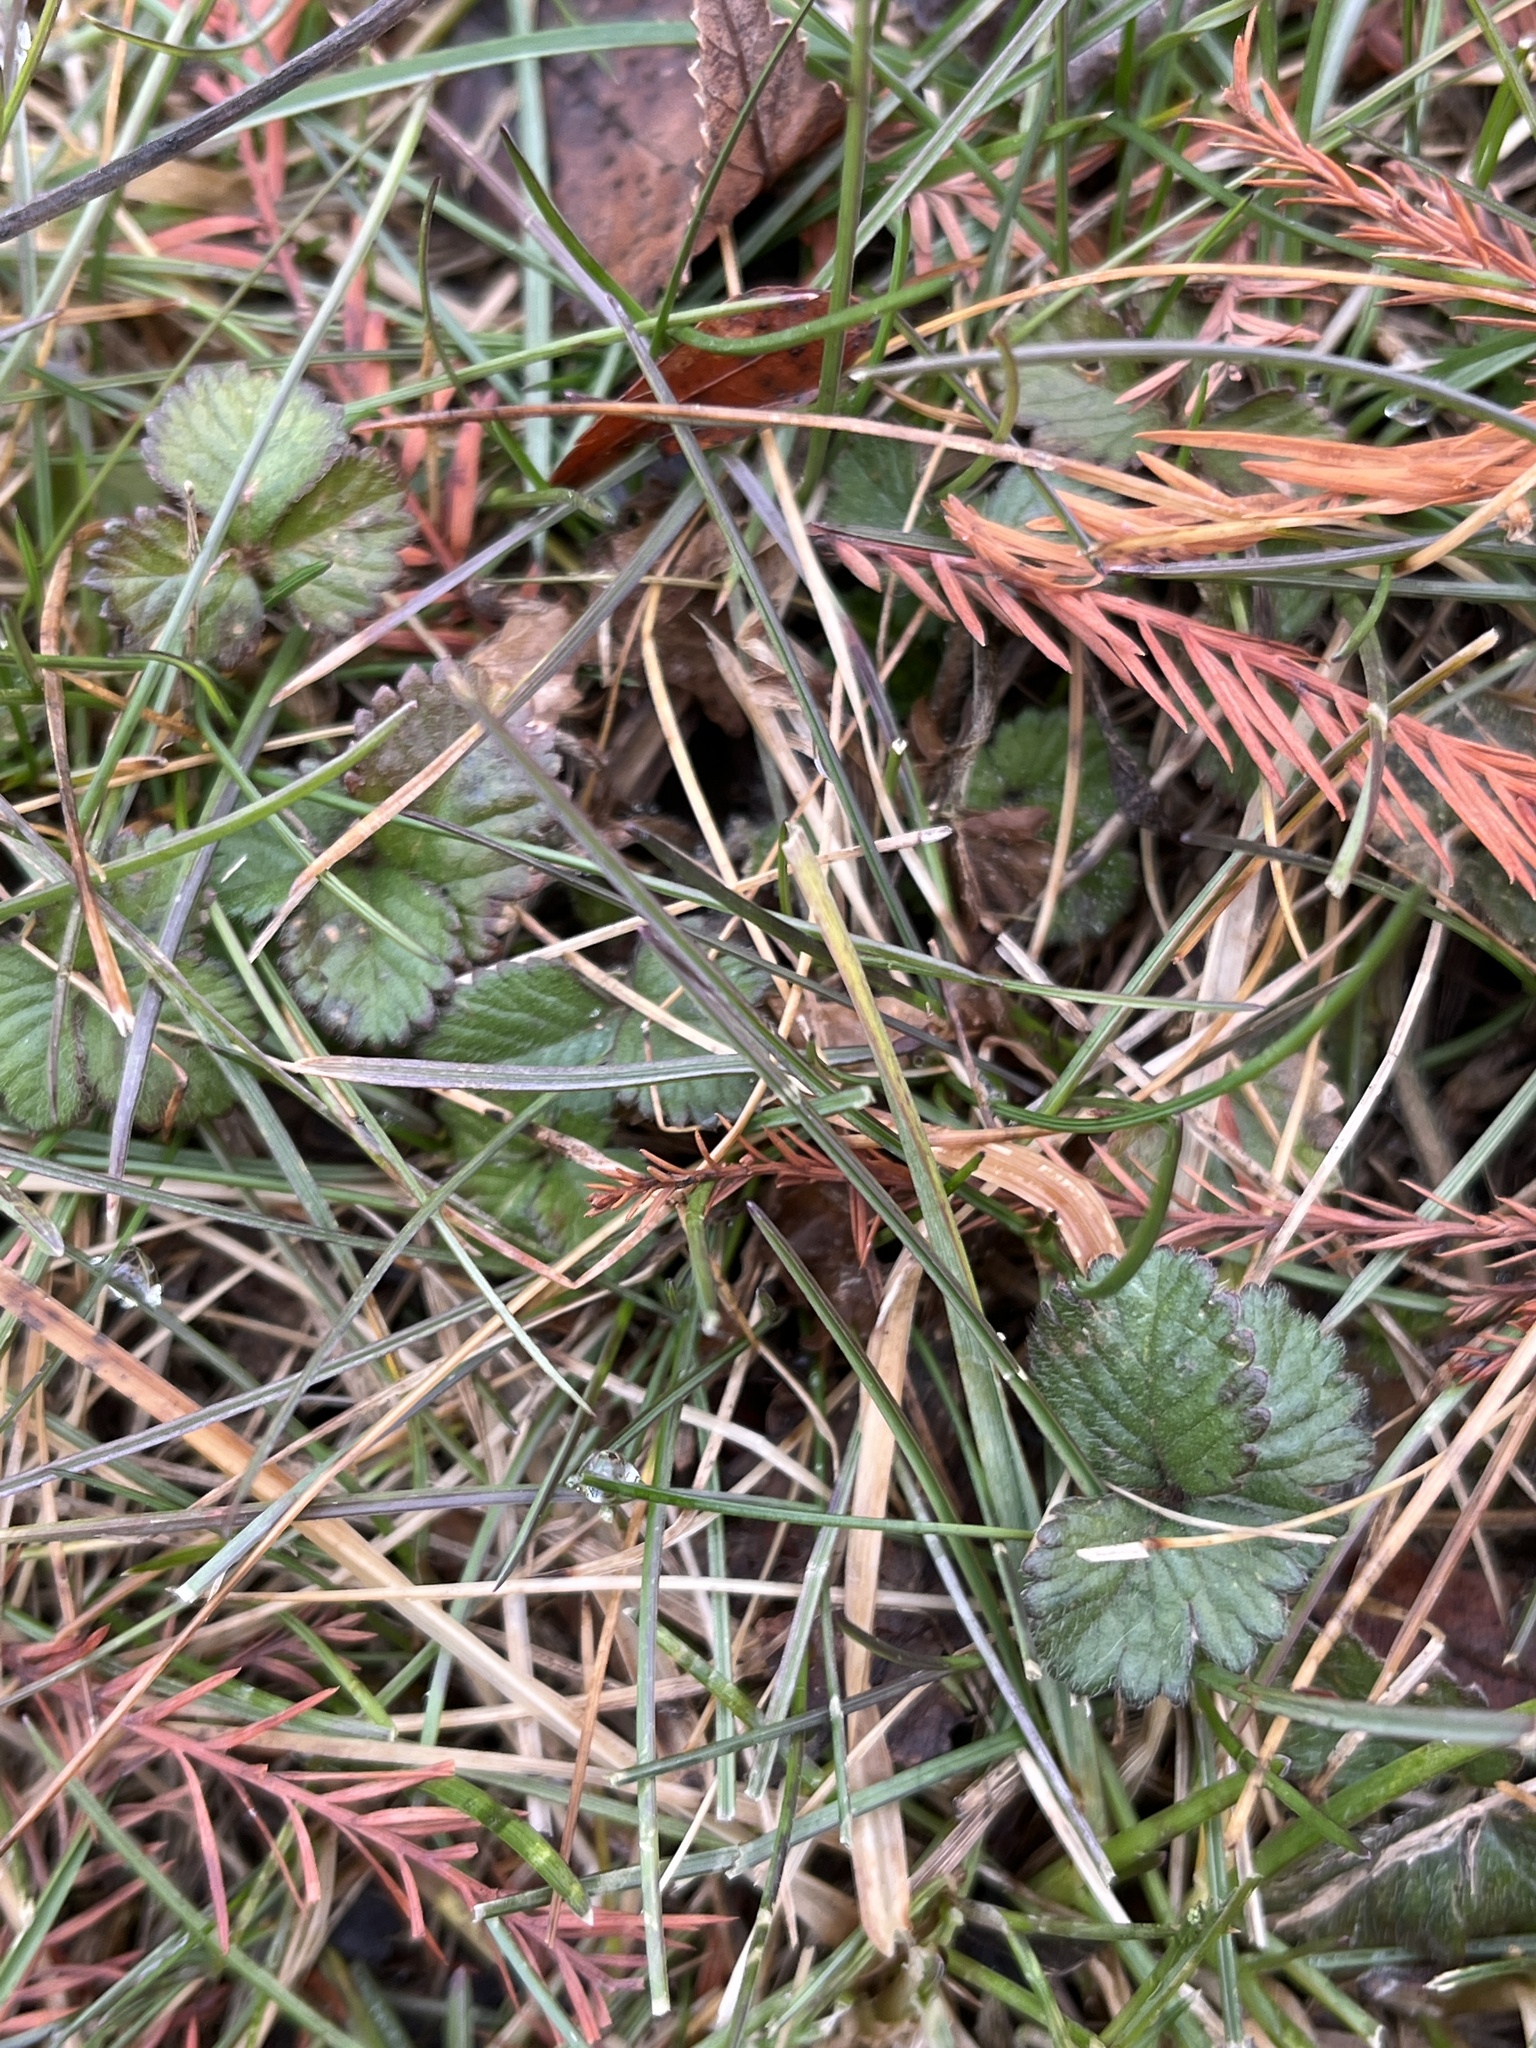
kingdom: Plantae
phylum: Tracheophyta
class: Magnoliopsida
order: Rosales
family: Rosaceae
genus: Potentilla
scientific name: Potentilla indica
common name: Yellow-flowered strawberry
